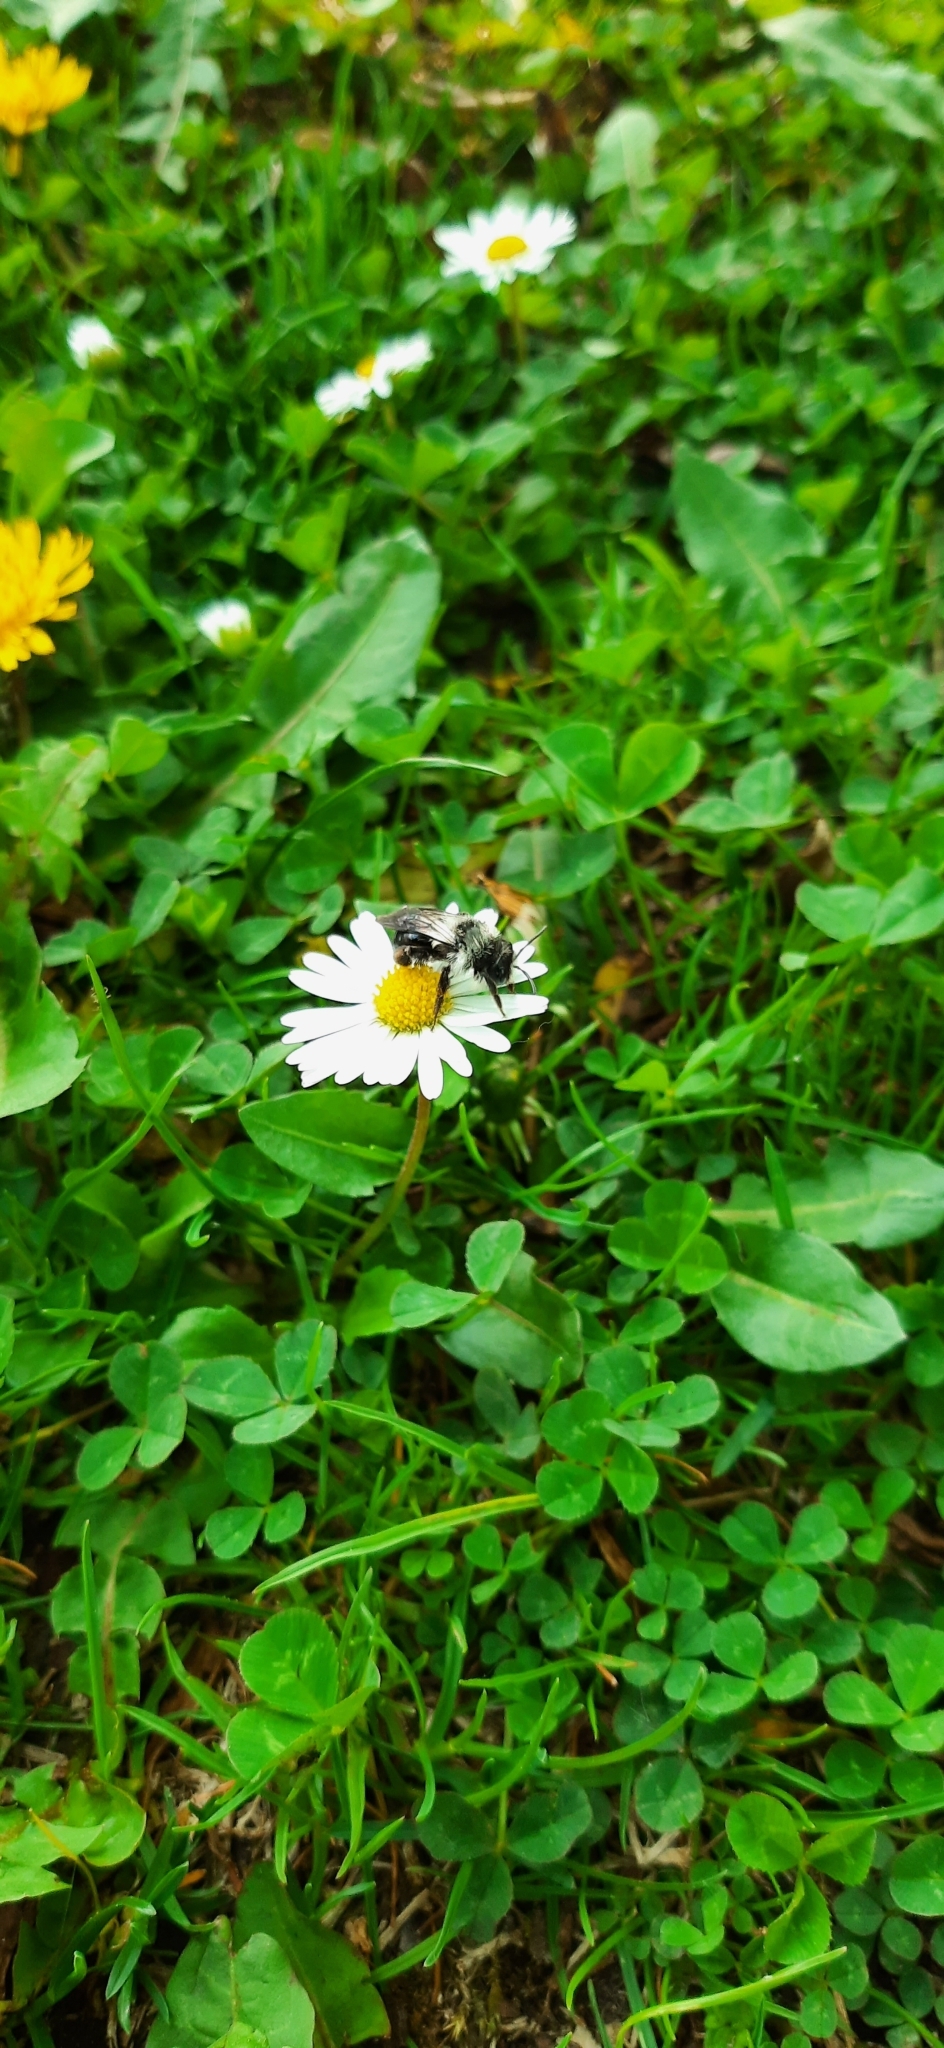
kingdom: Animalia
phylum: Arthropoda
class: Insecta
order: Hymenoptera
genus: Melandrena
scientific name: Melandrena
